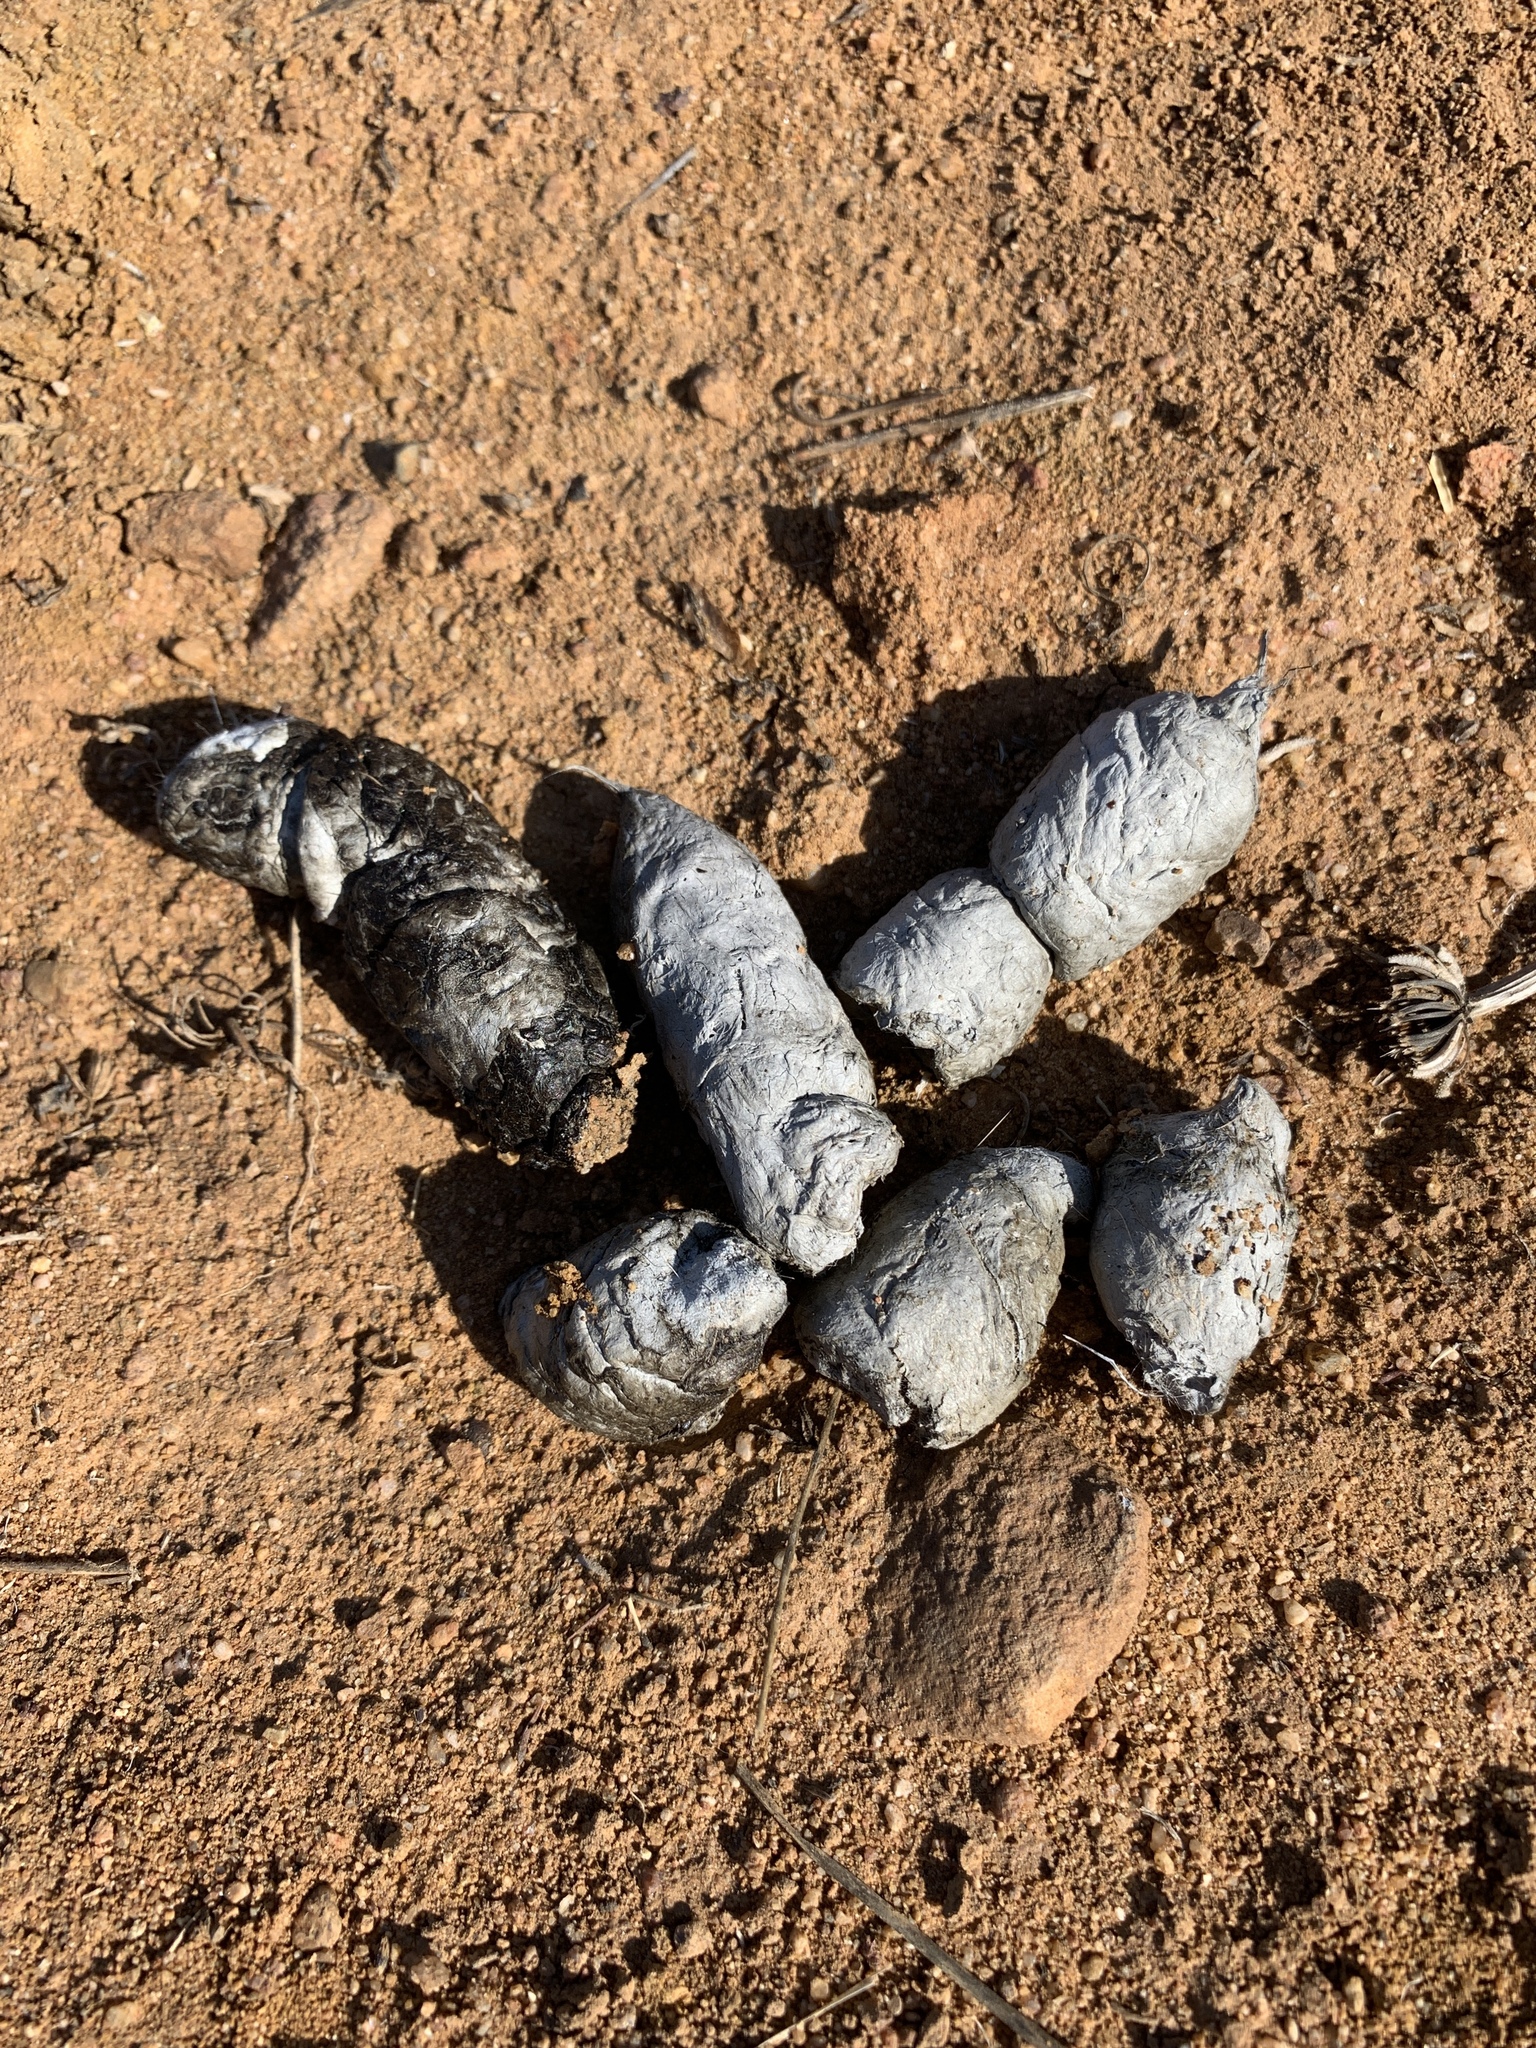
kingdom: Animalia
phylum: Chordata
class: Mammalia
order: Carnivora
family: Felidae
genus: Lynx
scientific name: Lynx rufus
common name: Bobcat
